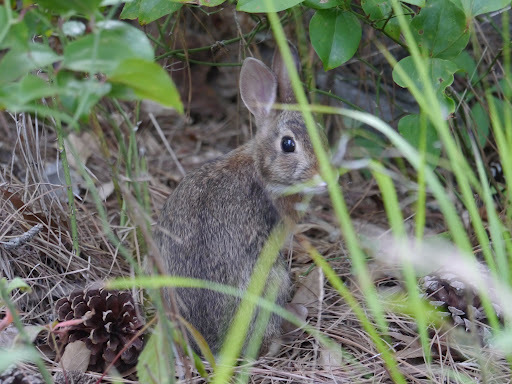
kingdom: Animalia
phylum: Chordata
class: Mammalia
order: Lagomorpha
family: Leporidae
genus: Sylvilagus
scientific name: Sylvilagus floridanus
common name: Eastern cottontail
